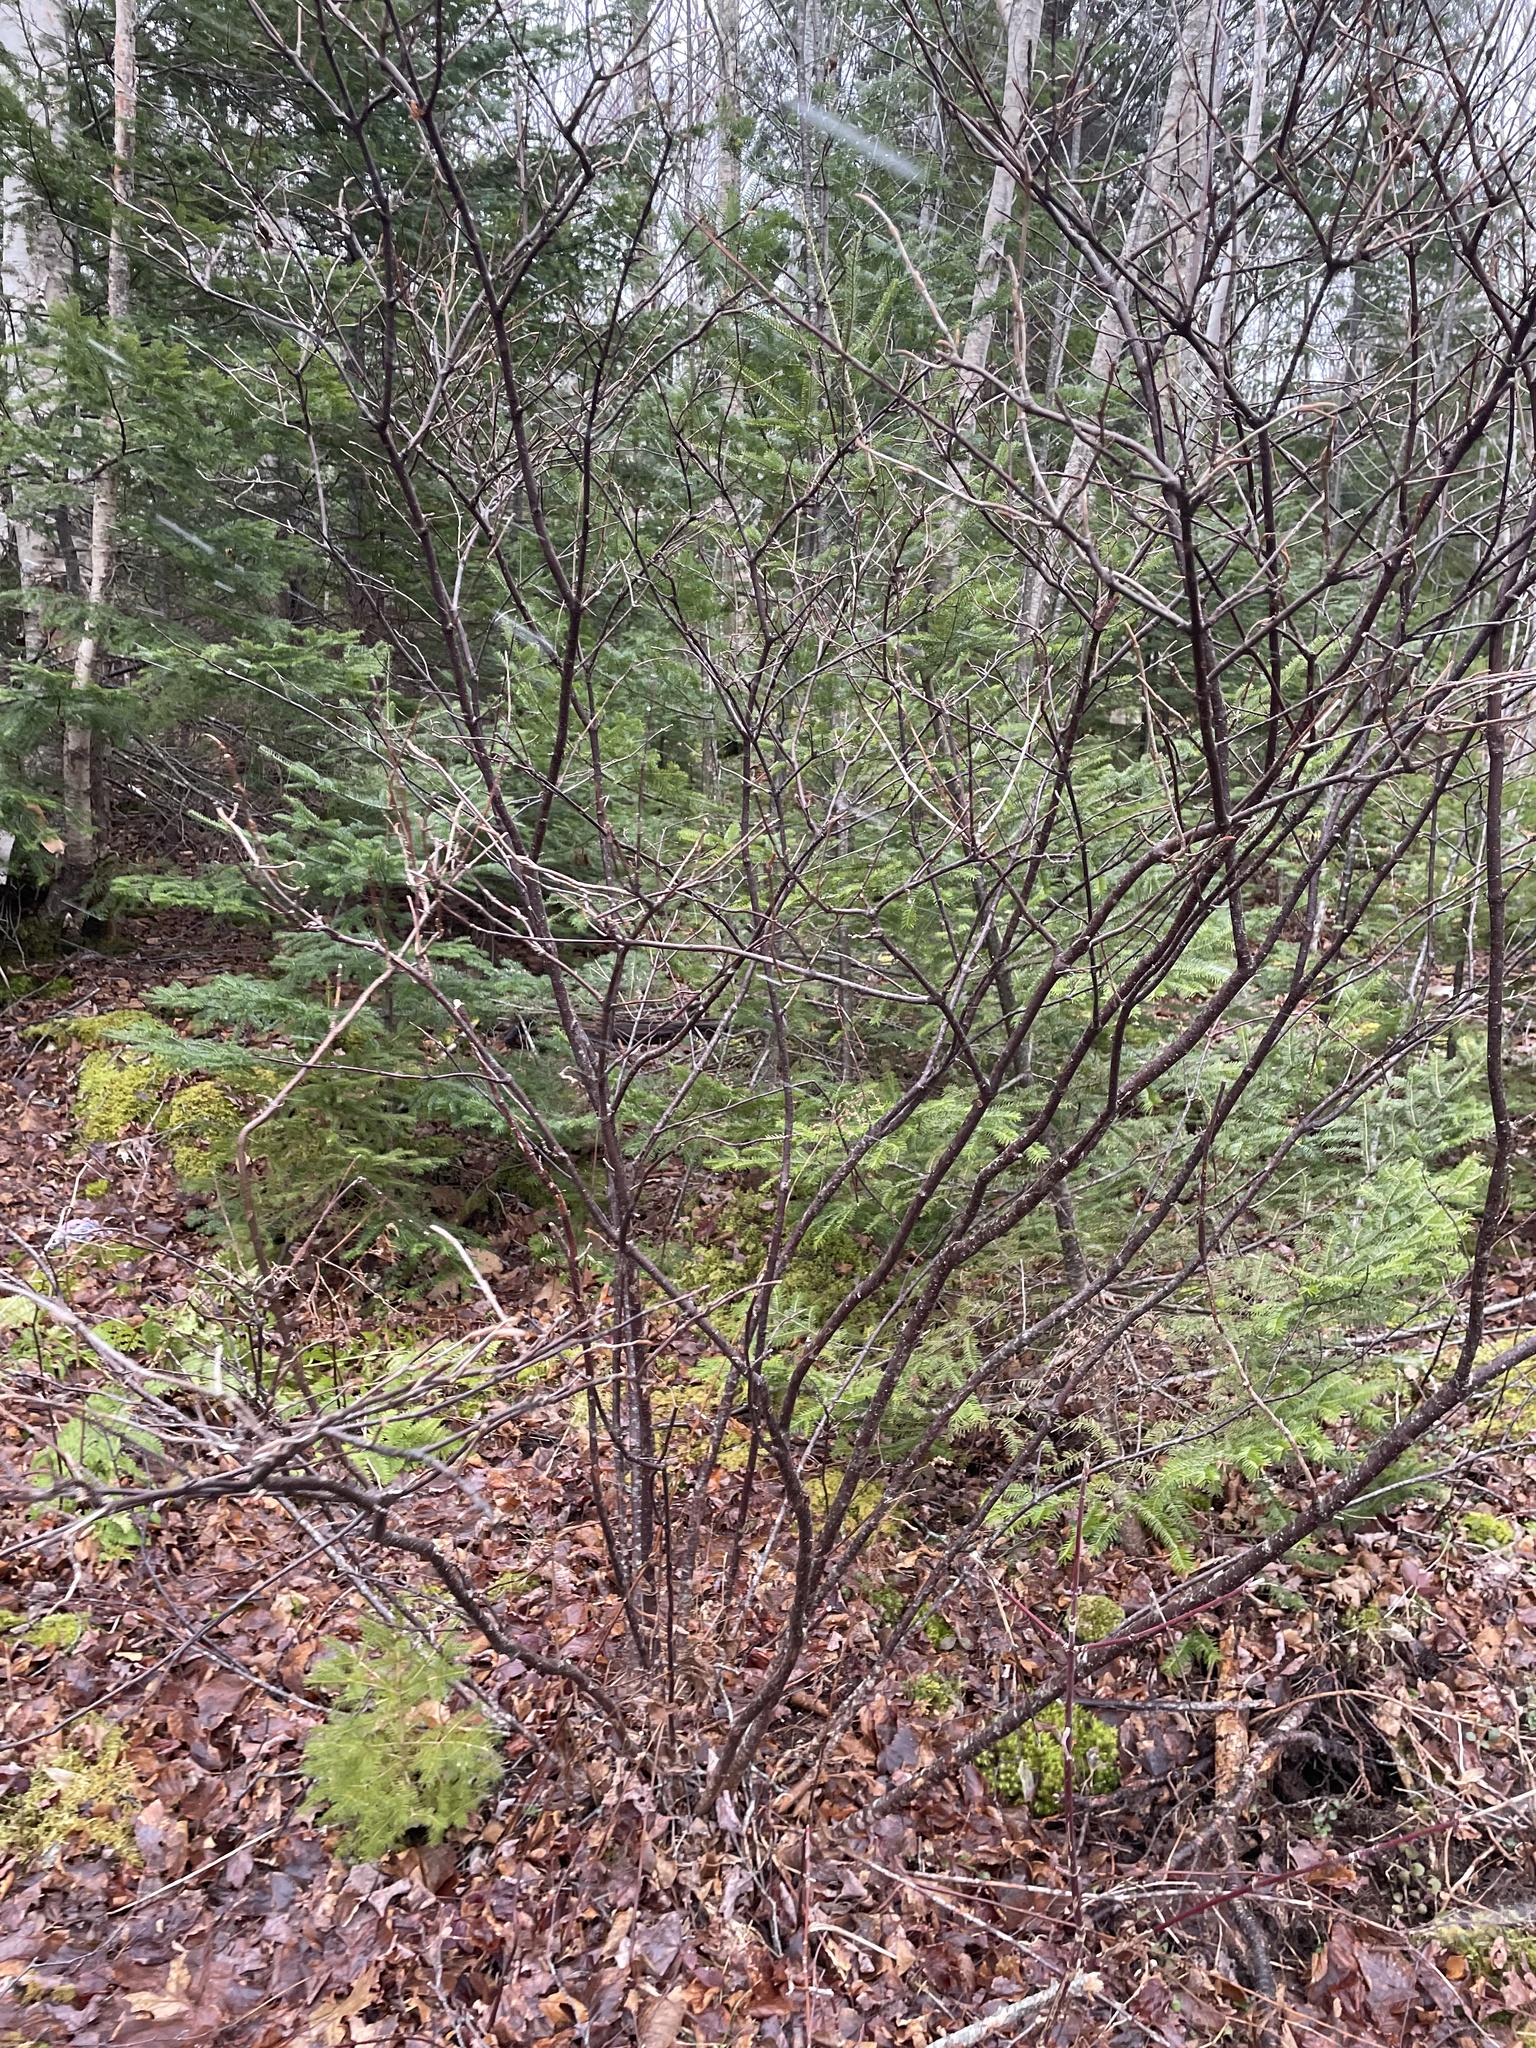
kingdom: Plantae
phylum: Tracheophyta
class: Magnoliopsida
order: Dipsacales
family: Viburnaceae
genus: Viburnum
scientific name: Viburnum cassinoides
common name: Swamp haw
